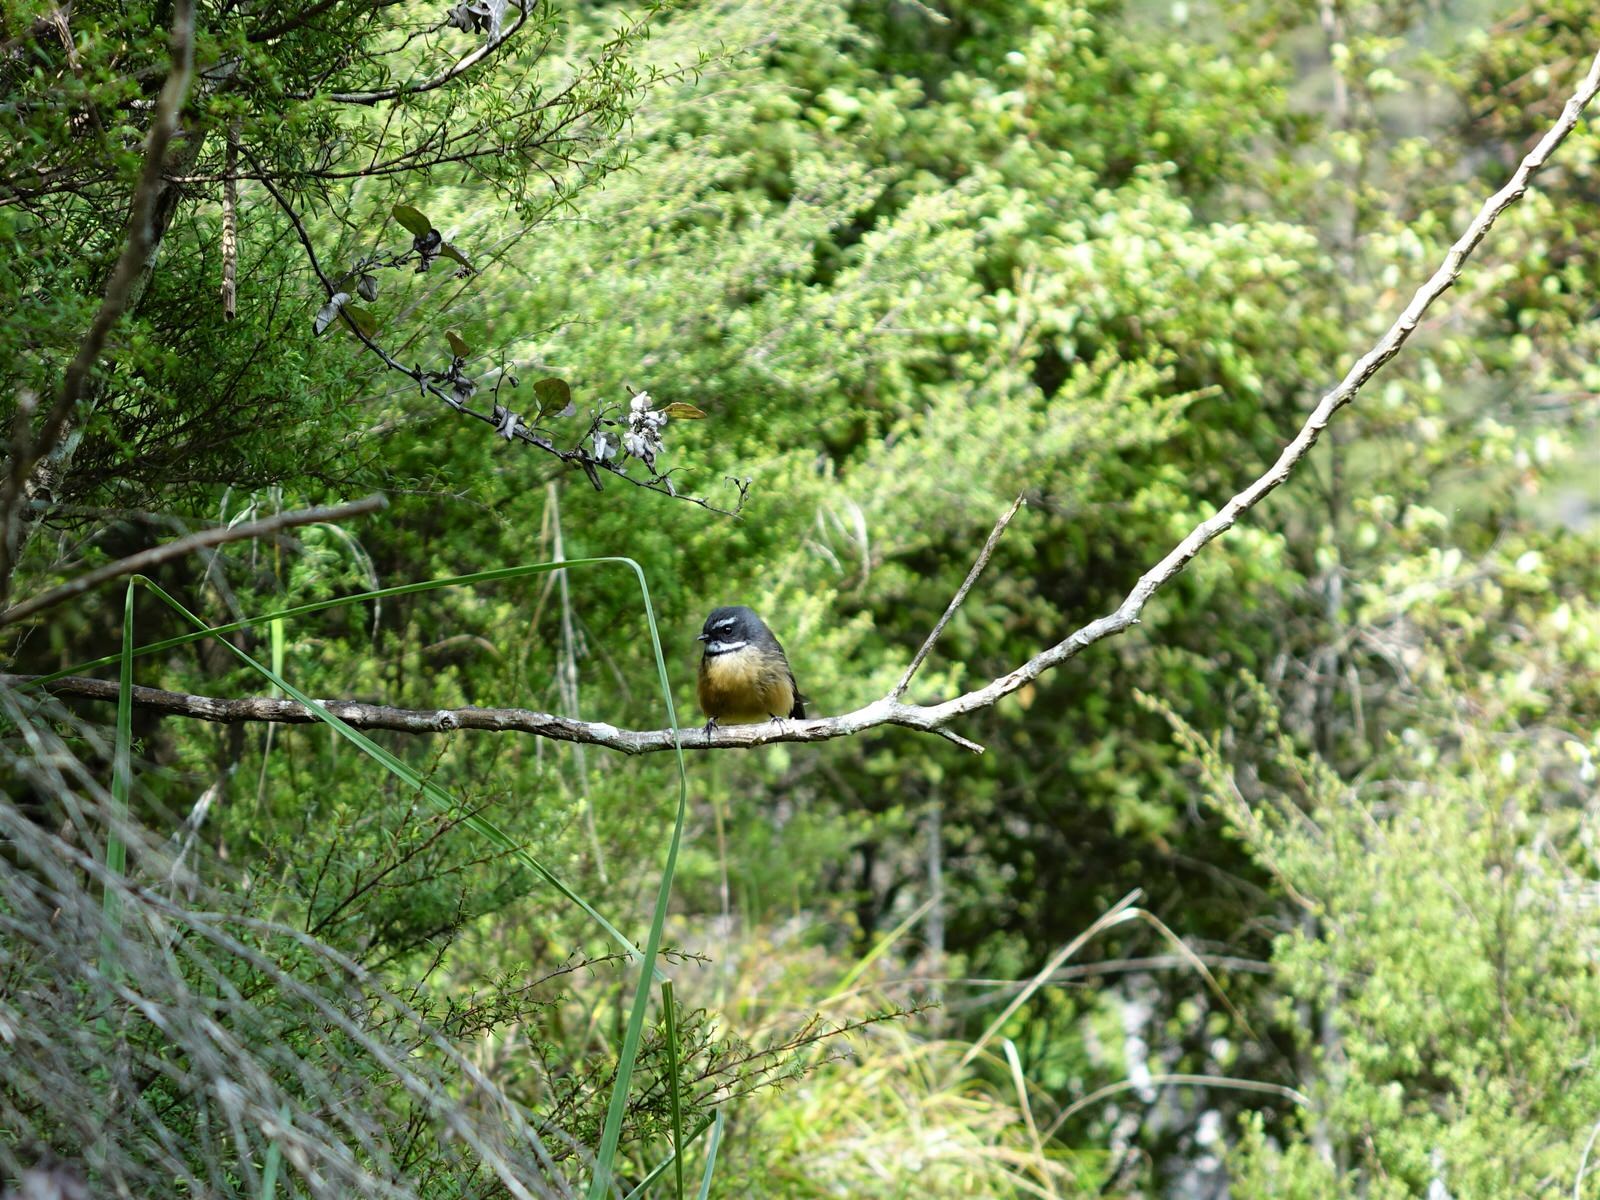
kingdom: Animalia
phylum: Chordata
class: Aves
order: Passeriformes
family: Rhipiduridae
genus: Rhipidura
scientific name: Rhipidura fuliginosa
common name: New zealand fantail
